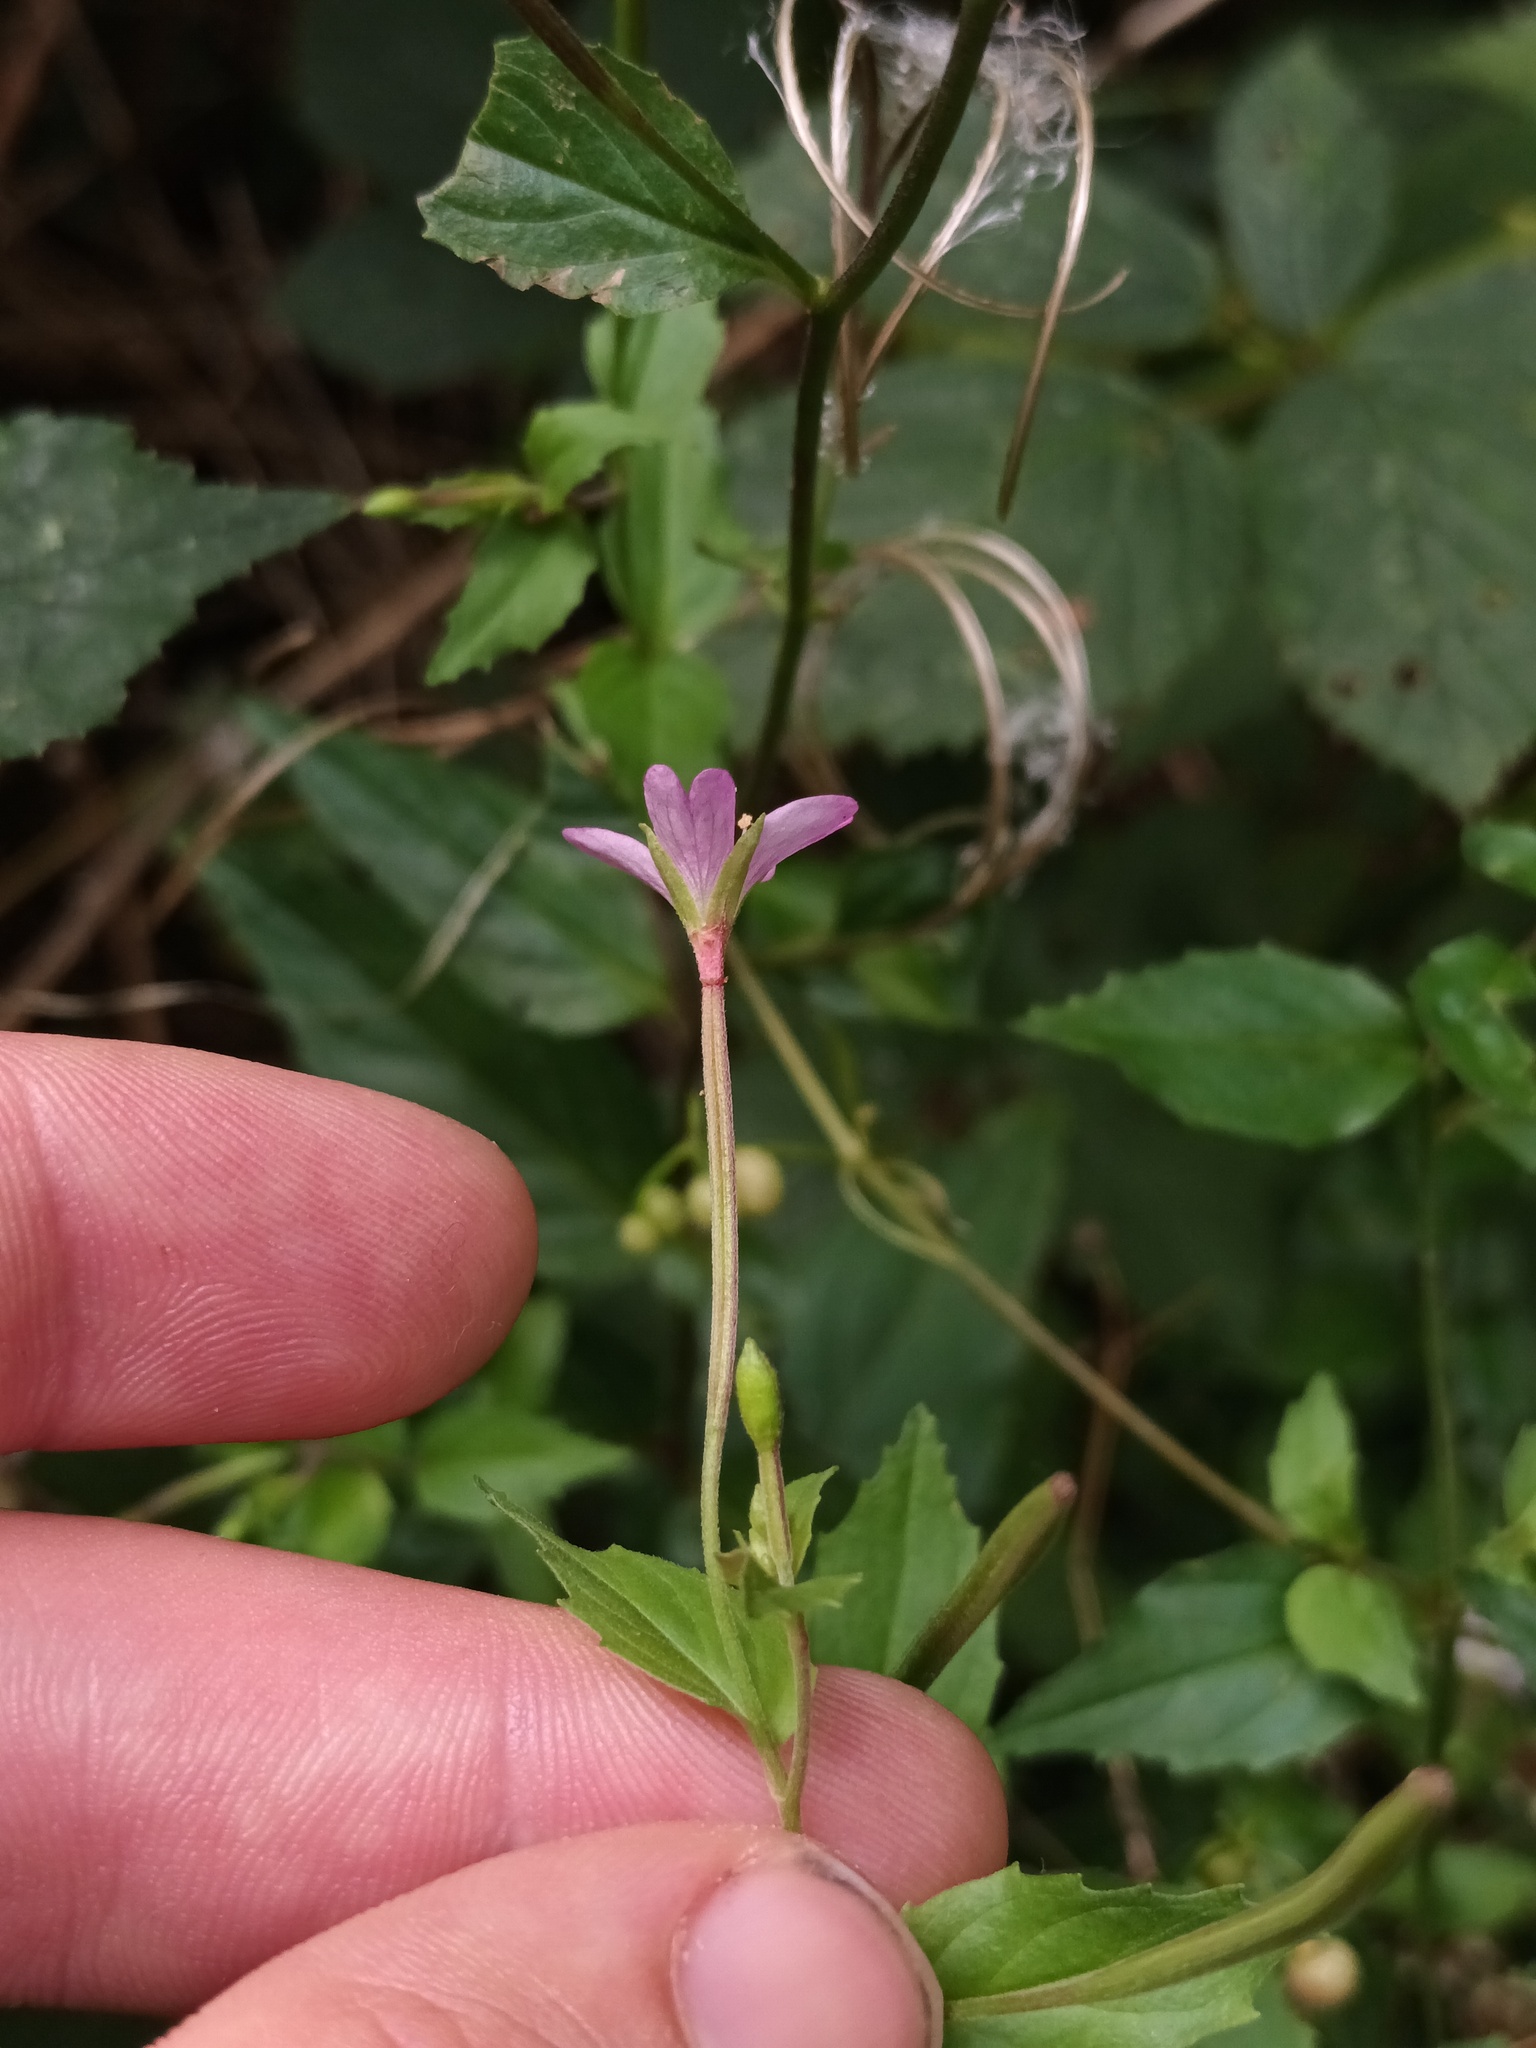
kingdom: Plantae
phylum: Tracheophyta
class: Magnoliopsida
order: Myrtales
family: Onagraceae
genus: Epilobium
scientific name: Epilobium montanum
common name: Broad-leaved willowherb
